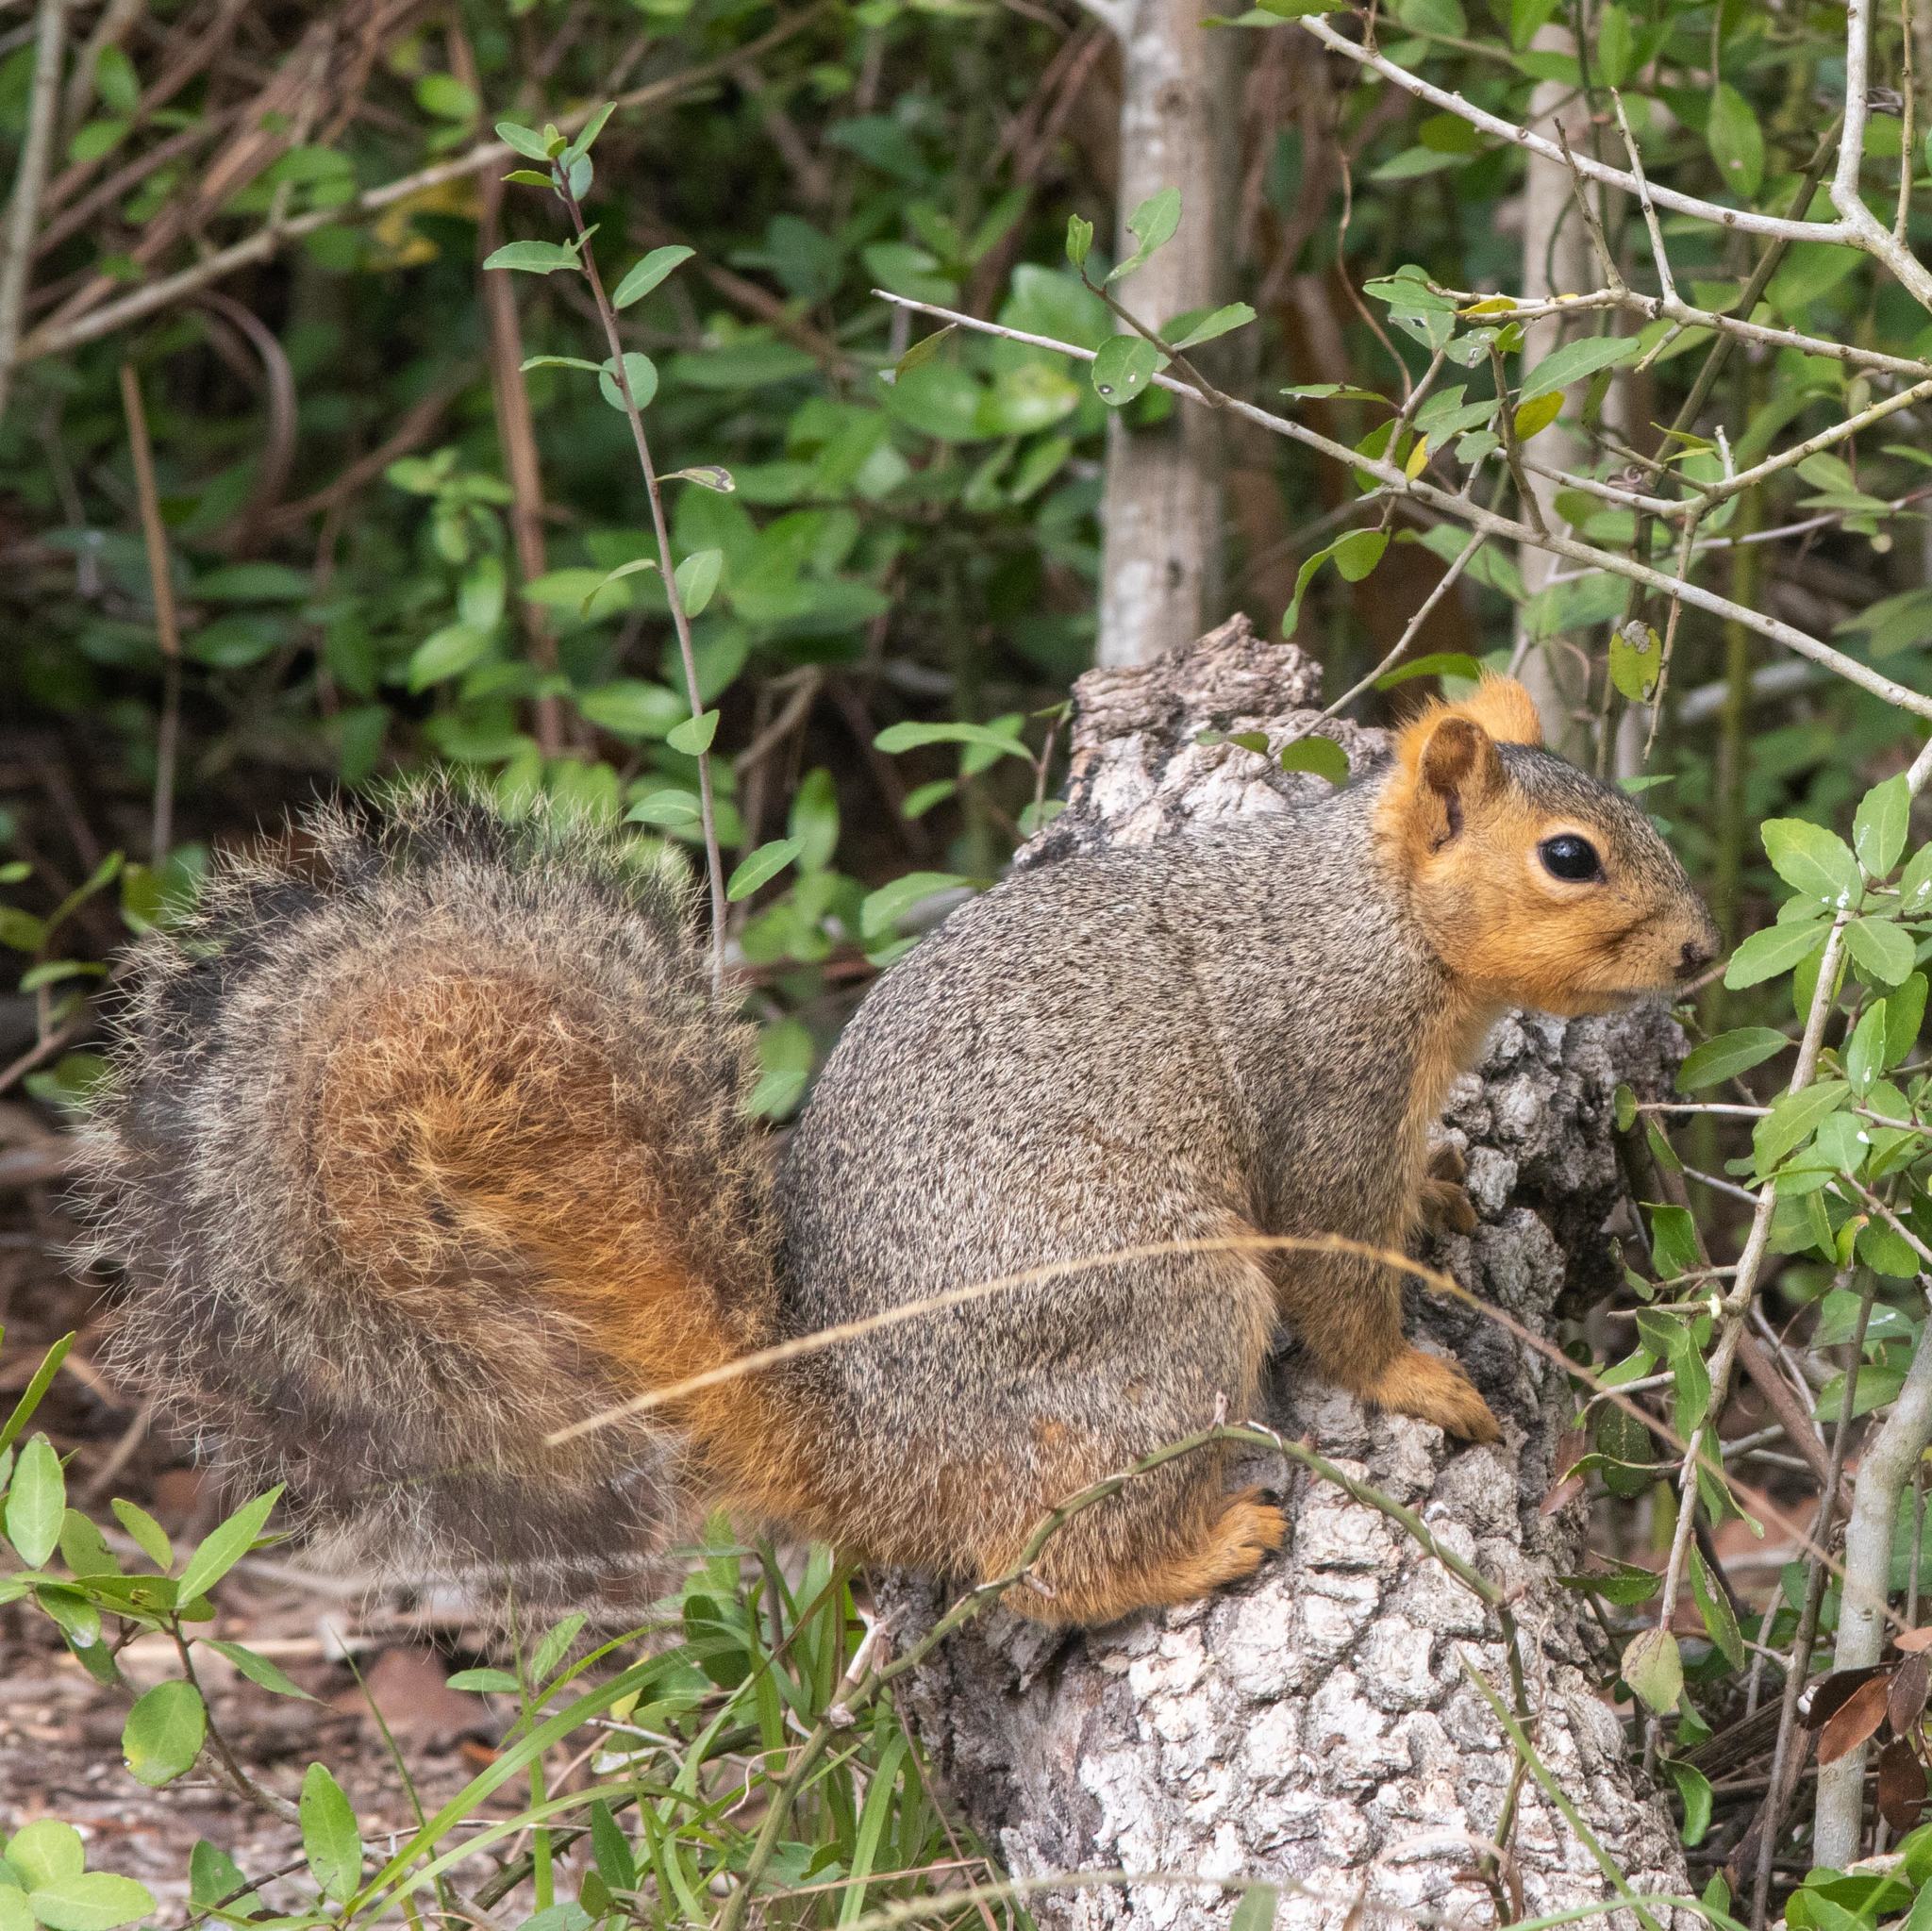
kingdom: Animalia
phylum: Chordata
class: Mammalia
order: Rodentia
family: Sciuridae
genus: Sciurus
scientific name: Sciurus niger
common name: Fox squirrel
